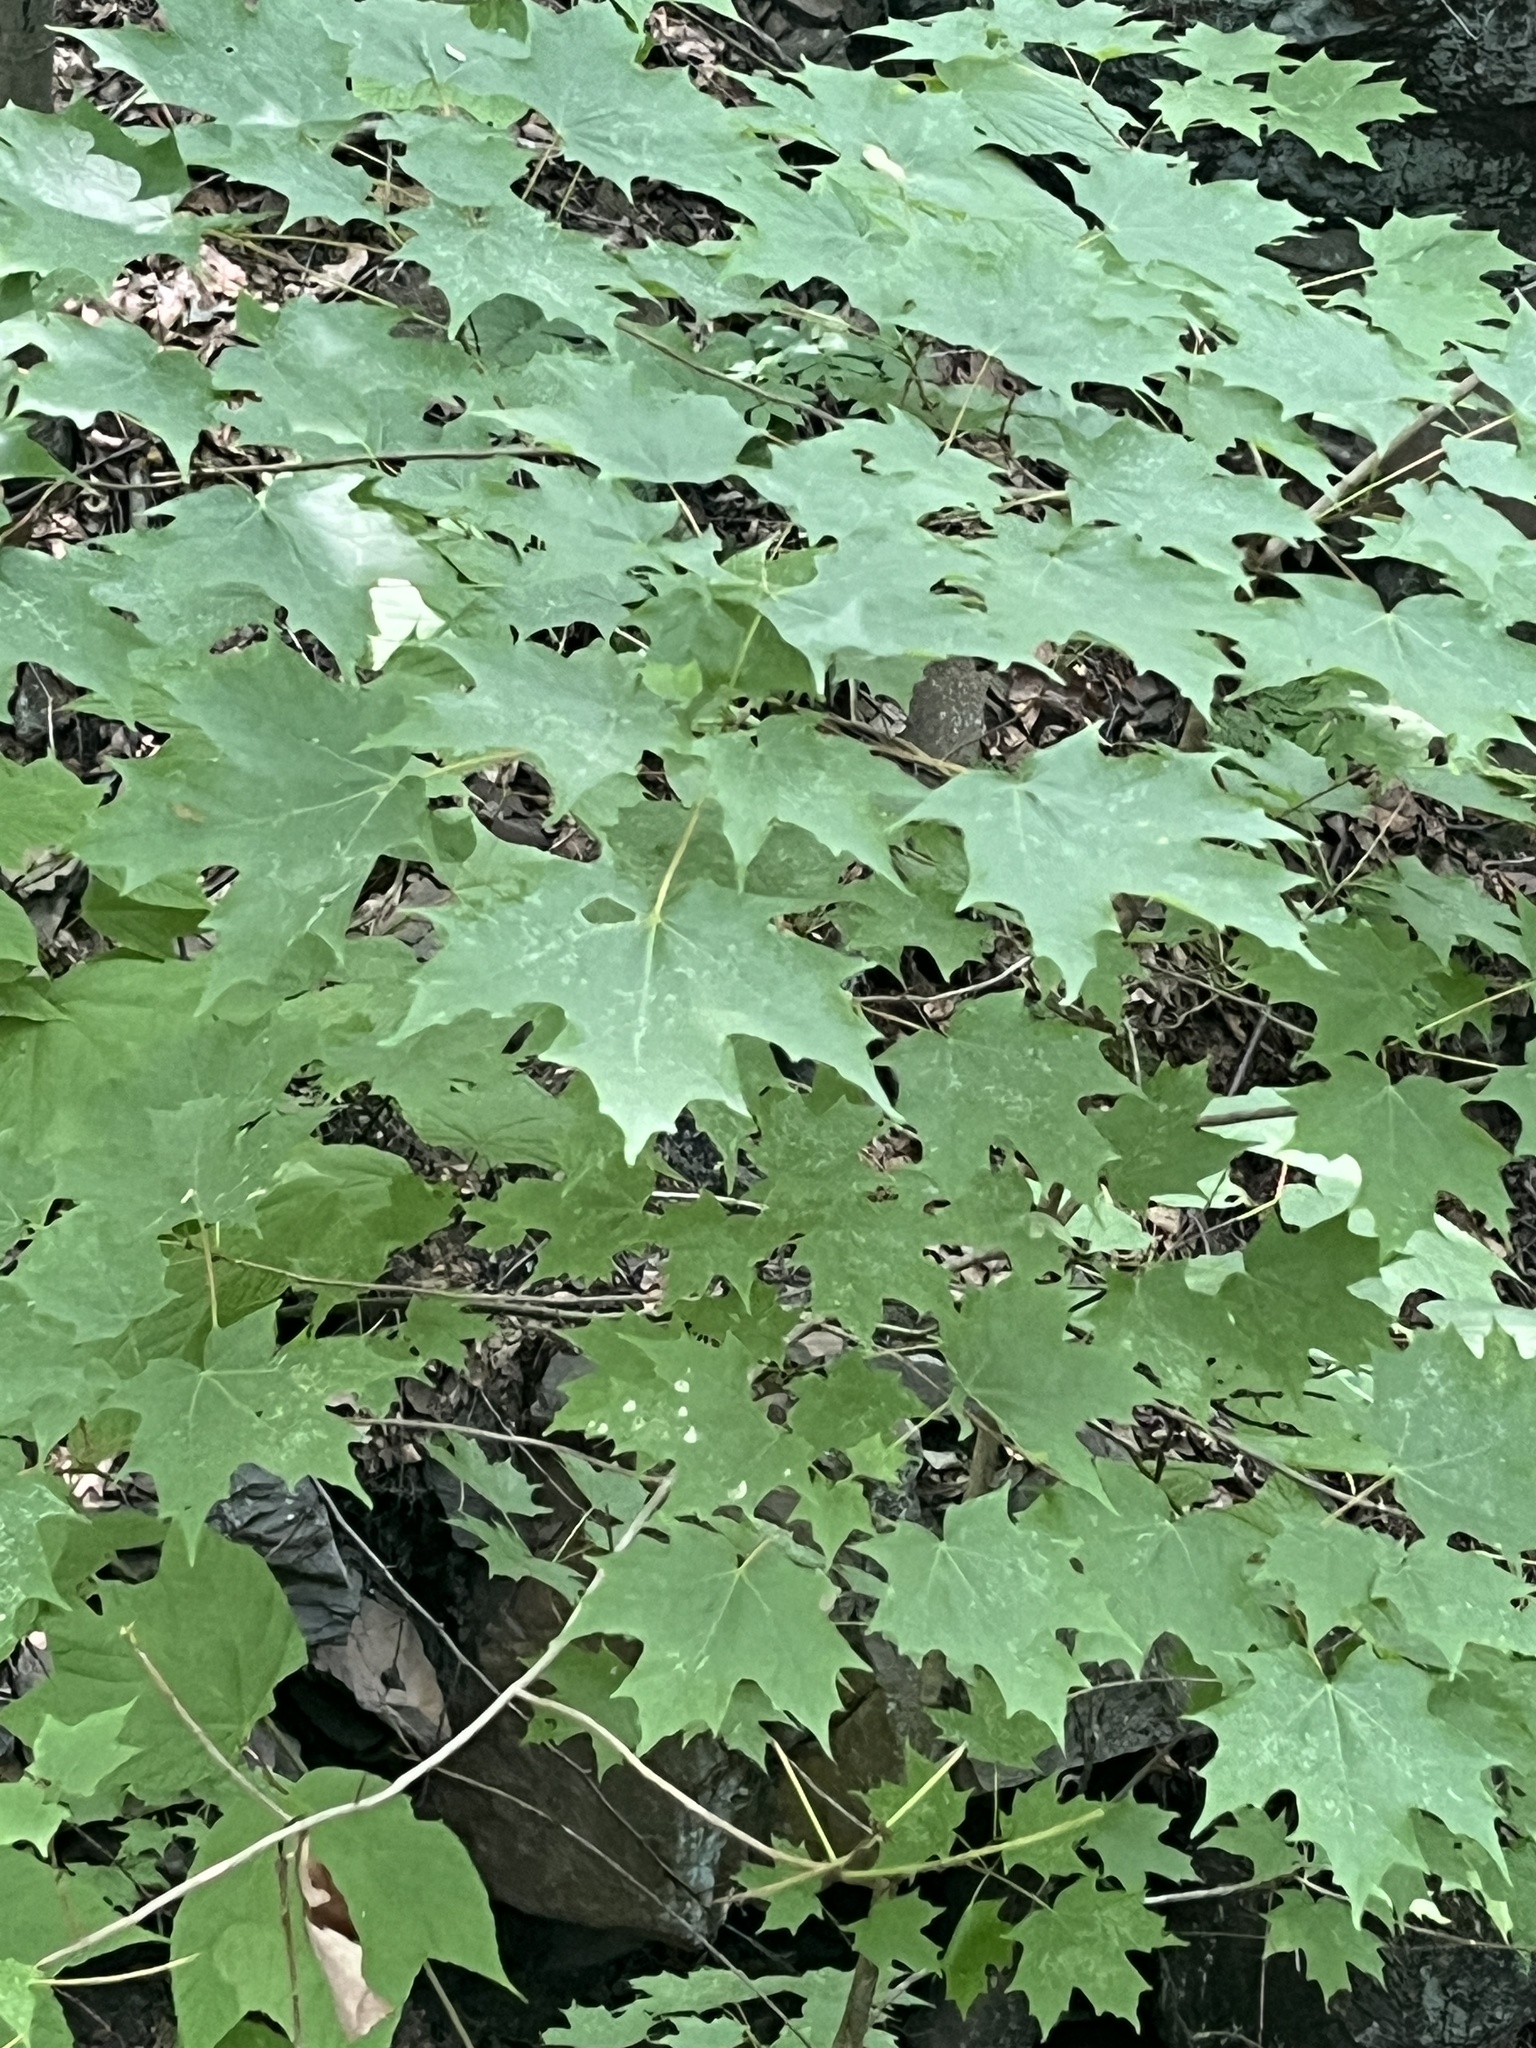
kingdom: Plantae
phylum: Tracheophyta
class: Magnoliopsida
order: Sapindales
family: Sapindaceae
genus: Acer
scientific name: Acer saccharum
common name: Sugar maple
